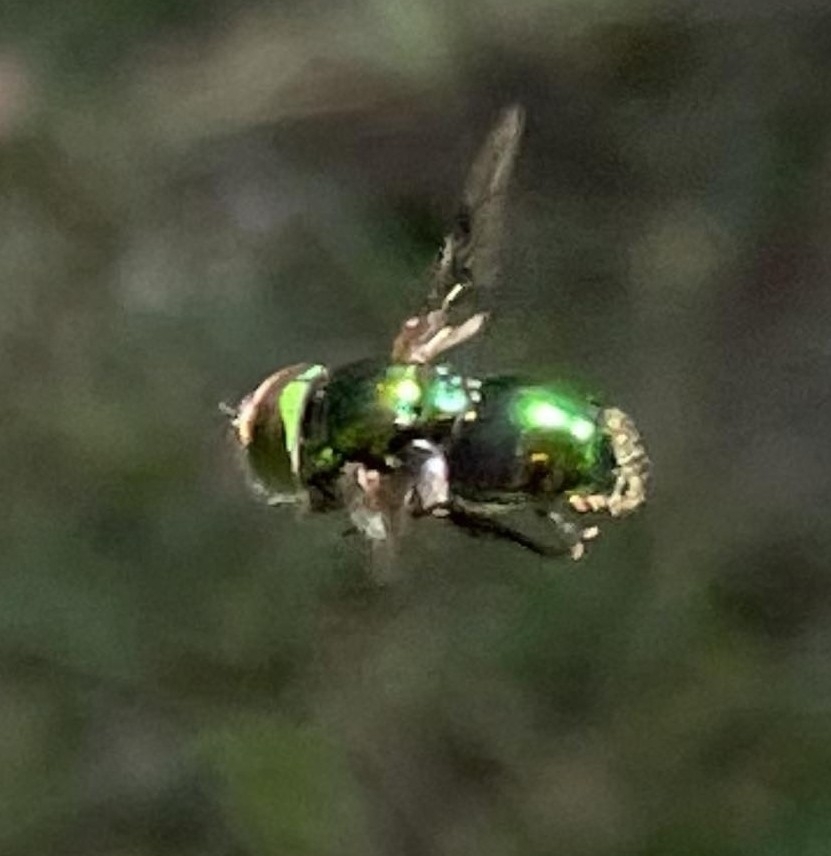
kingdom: Animalia
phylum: Arthropoda
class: Insecta
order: Diptera
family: Syrphidae
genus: Ornidia
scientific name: Ornidia obesa
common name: Syrphid fly
